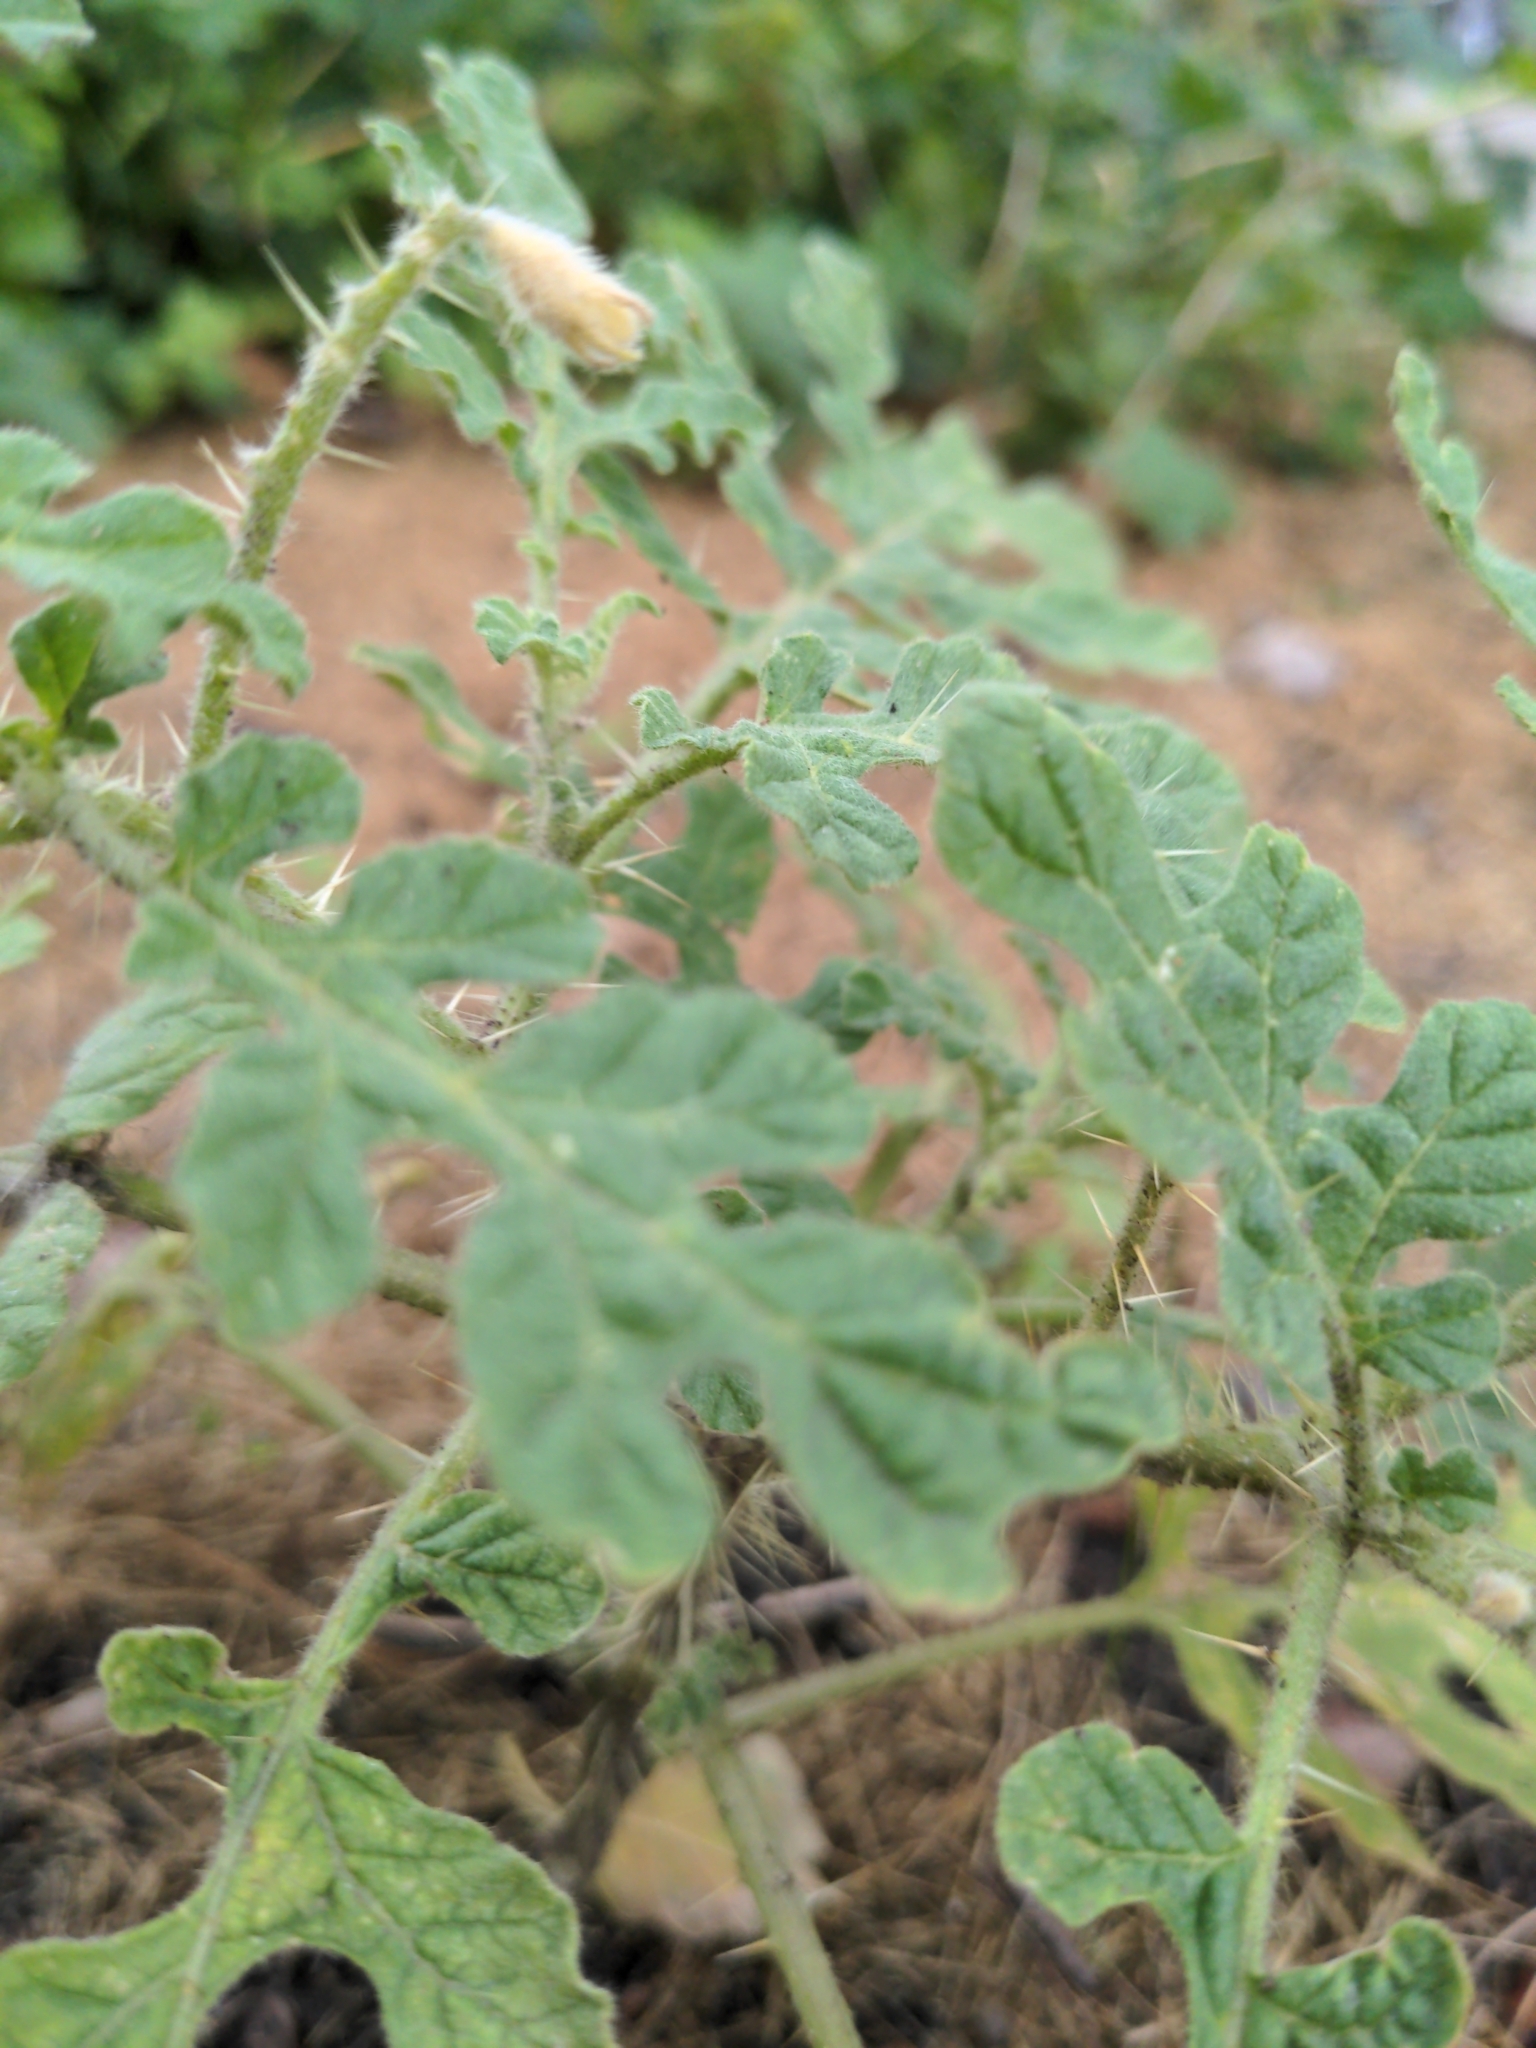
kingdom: Plantae
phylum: Tracheophyta
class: Magnoliopsida
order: Solanales
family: Solanaceae
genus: Solanum
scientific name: Solanum angustifolium
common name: Buffalobur nightshade
